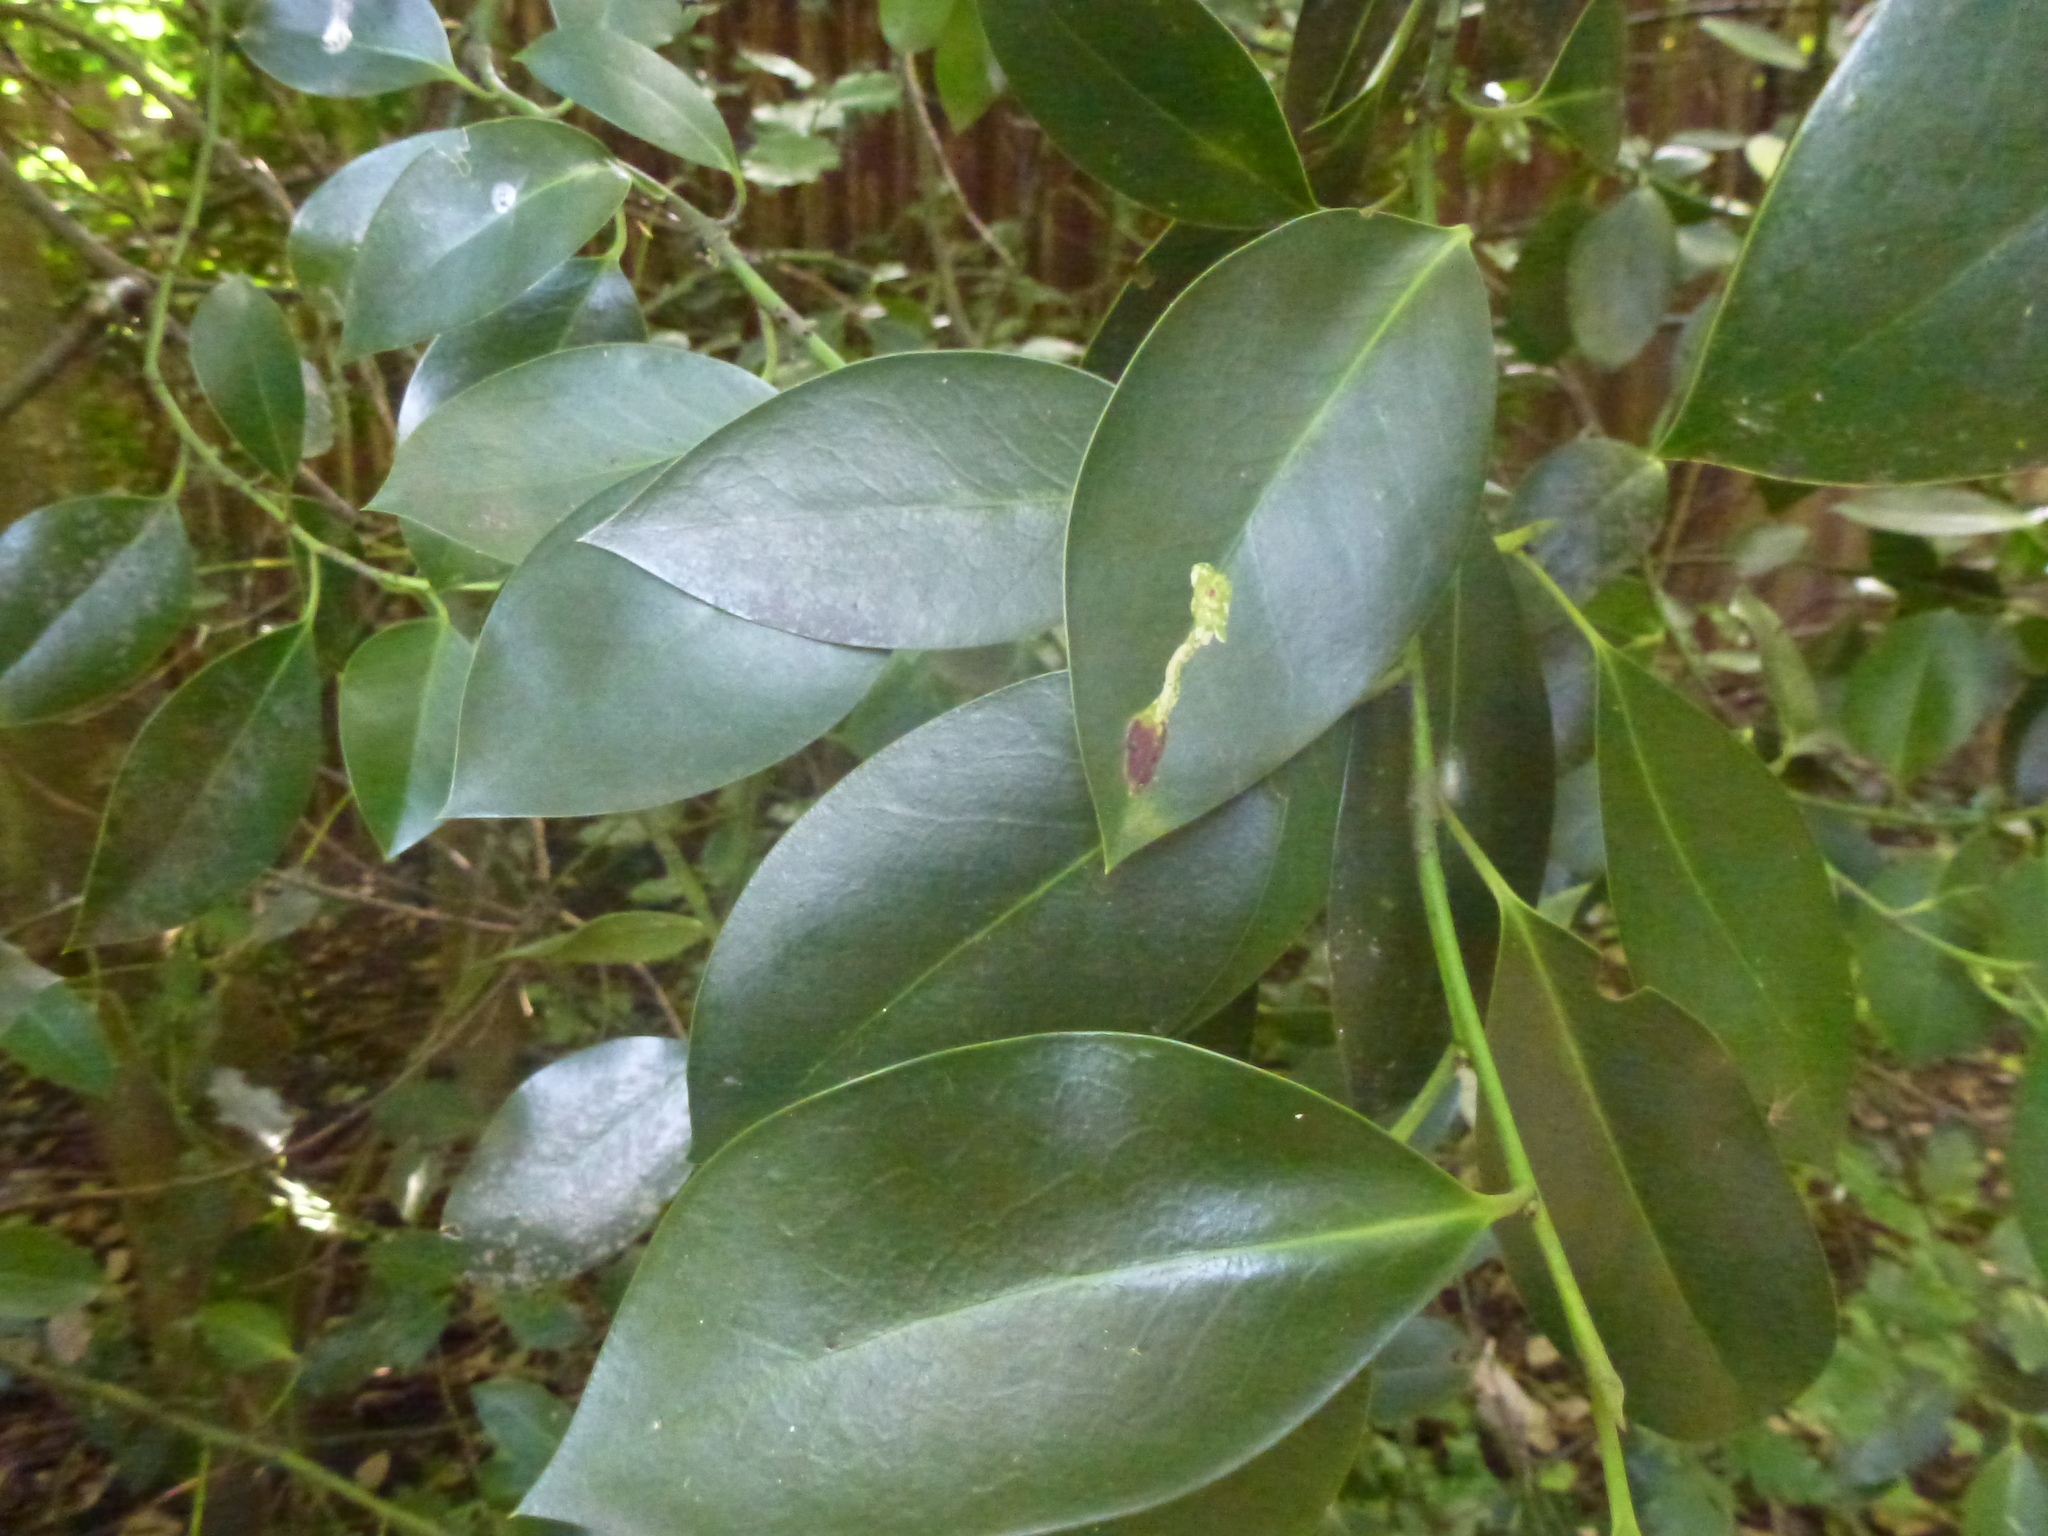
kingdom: Animalia
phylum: Arthropoda
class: Insecta
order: Diptera
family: Agromyzidae
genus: Phytomyza
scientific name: Phytomyza ilicis
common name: Holly leafminer
